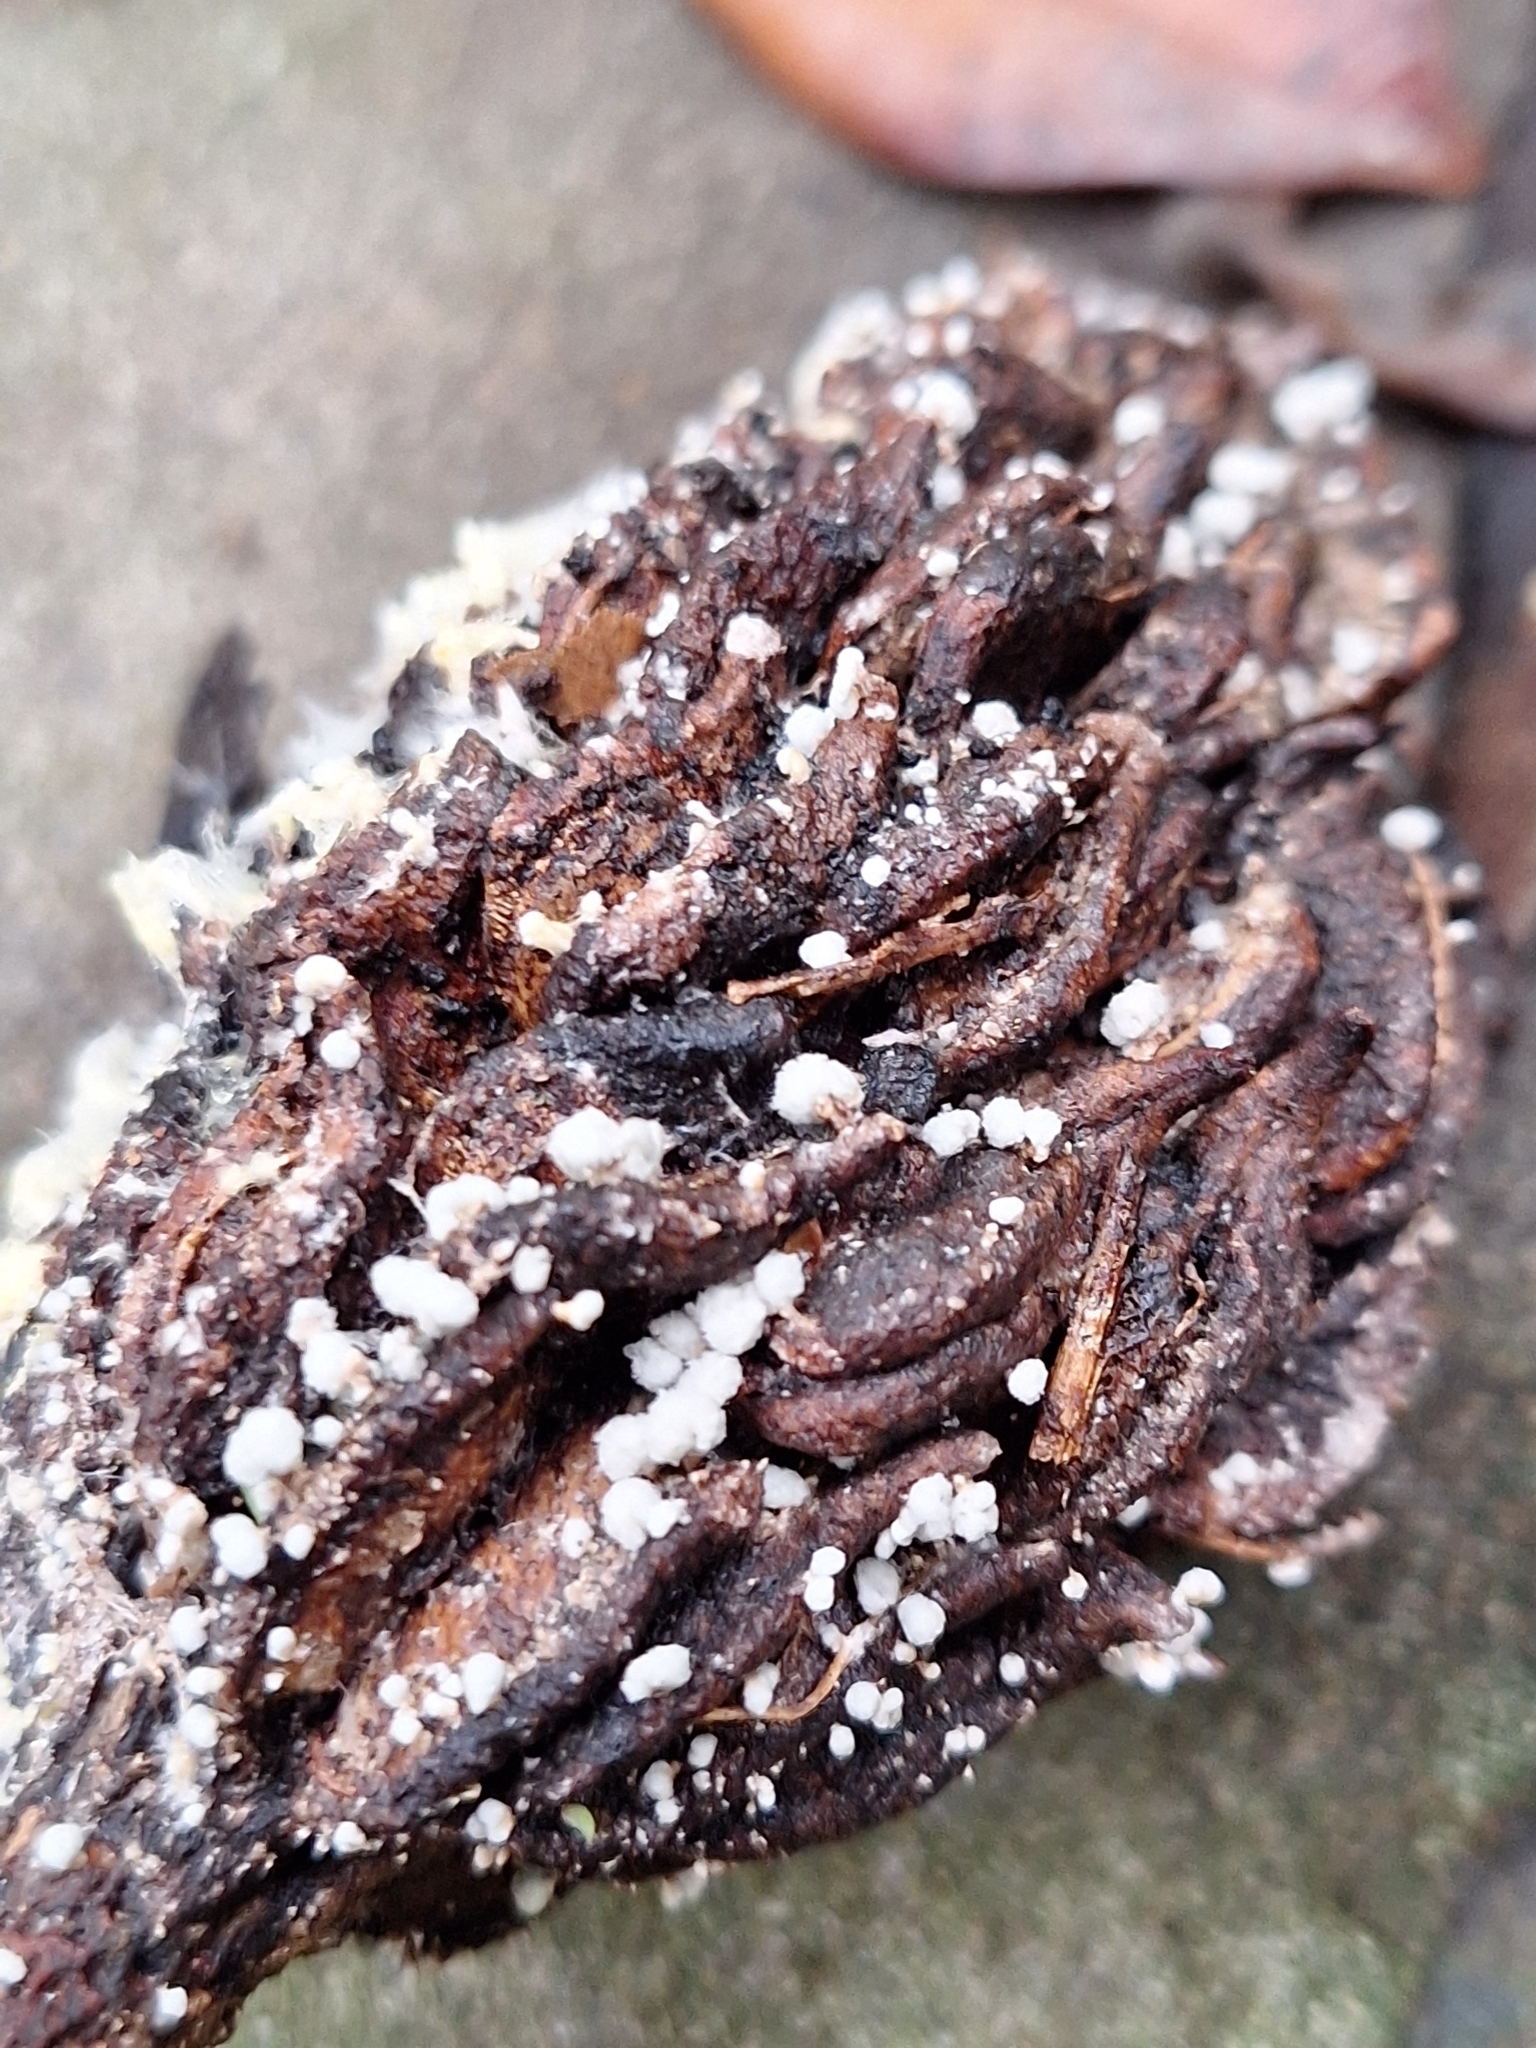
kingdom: Fungi
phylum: Basidiomycota
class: Agaricomycetes
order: Agaricales
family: Physalacriaceae
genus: Strobilurus
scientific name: Strobilurus conigenoides
